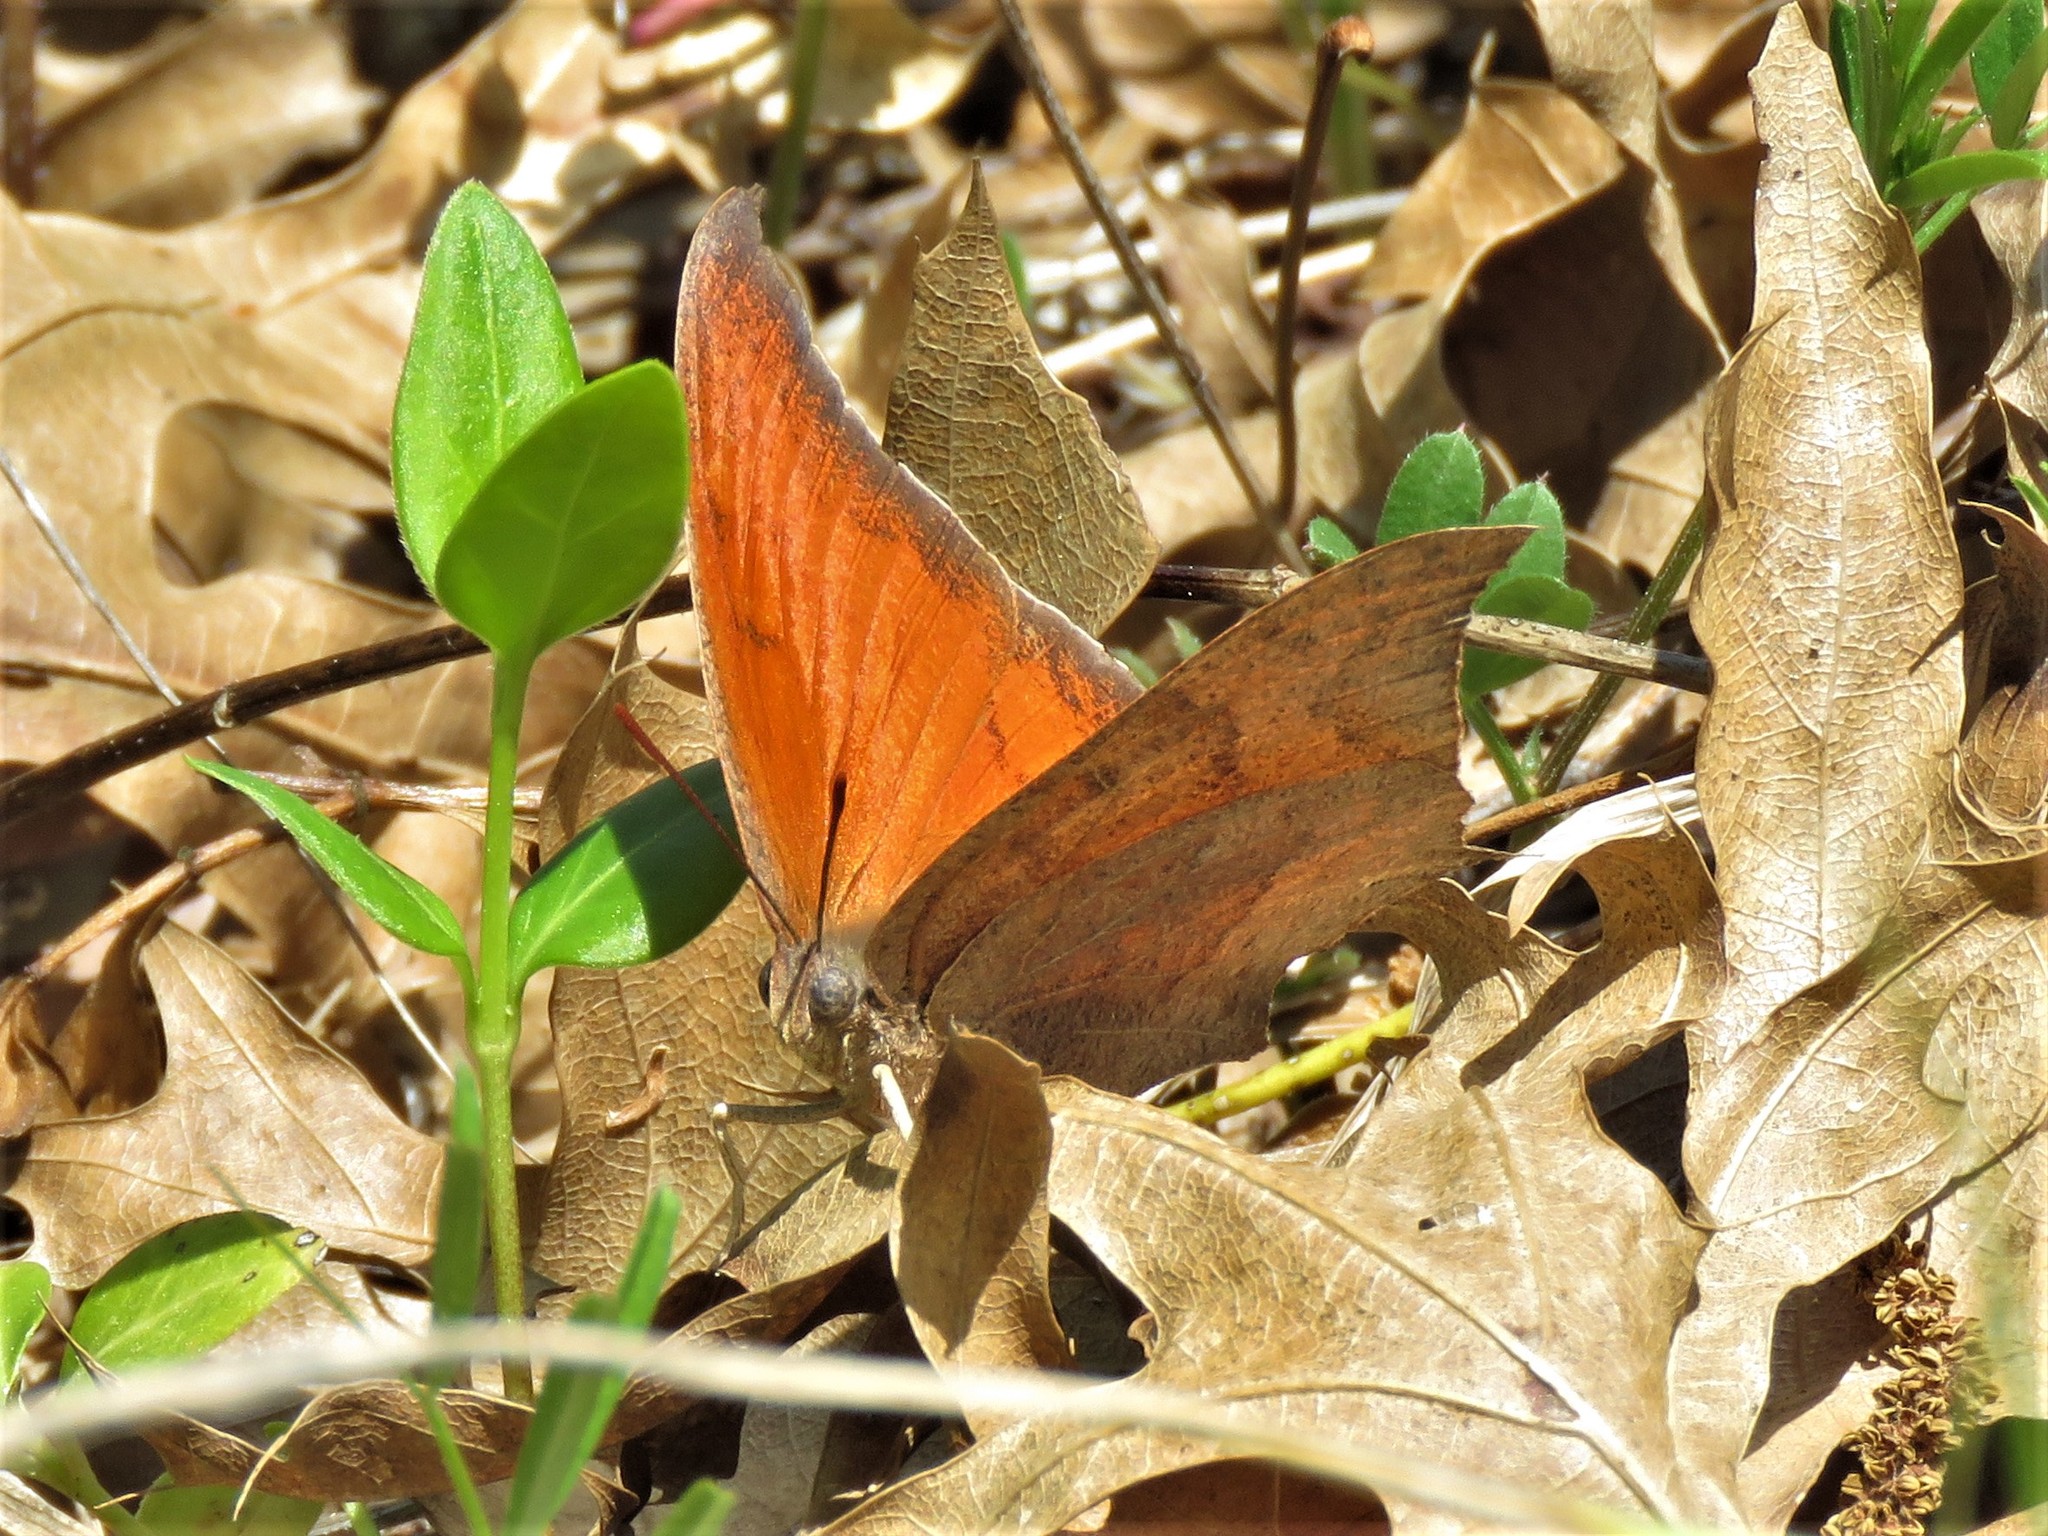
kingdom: Animalia
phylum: Arthropoda
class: Insecta
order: Lepidoptera
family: Nymphalidae
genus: Anaea
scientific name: Anaea andria
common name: Goatweed leafwing
